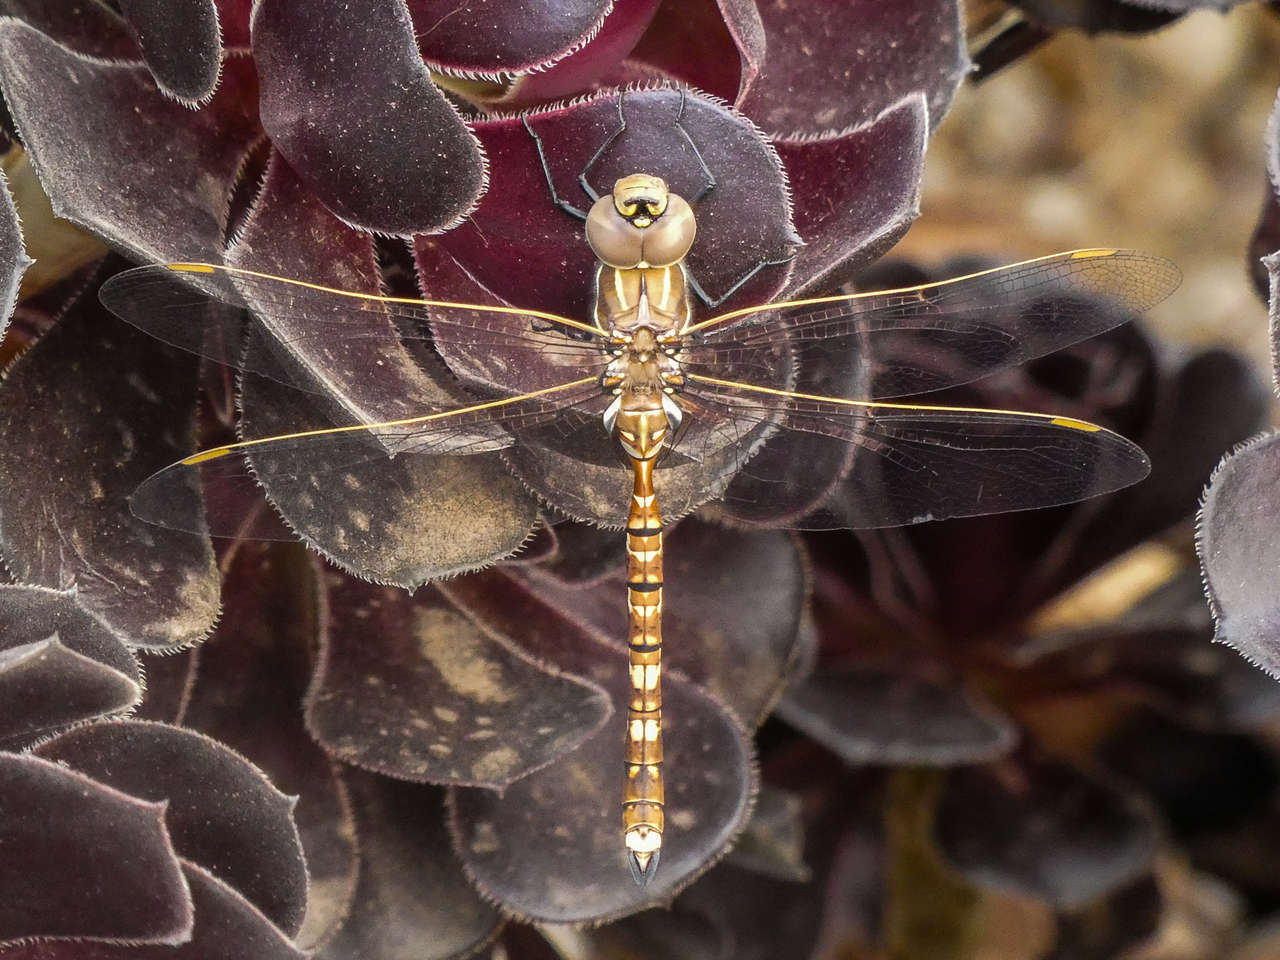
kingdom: Animalia
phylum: Arthropoda
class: Insecta
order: Odonata
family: Aeshnidae
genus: Aeshna
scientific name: Aeshna brevistyla
